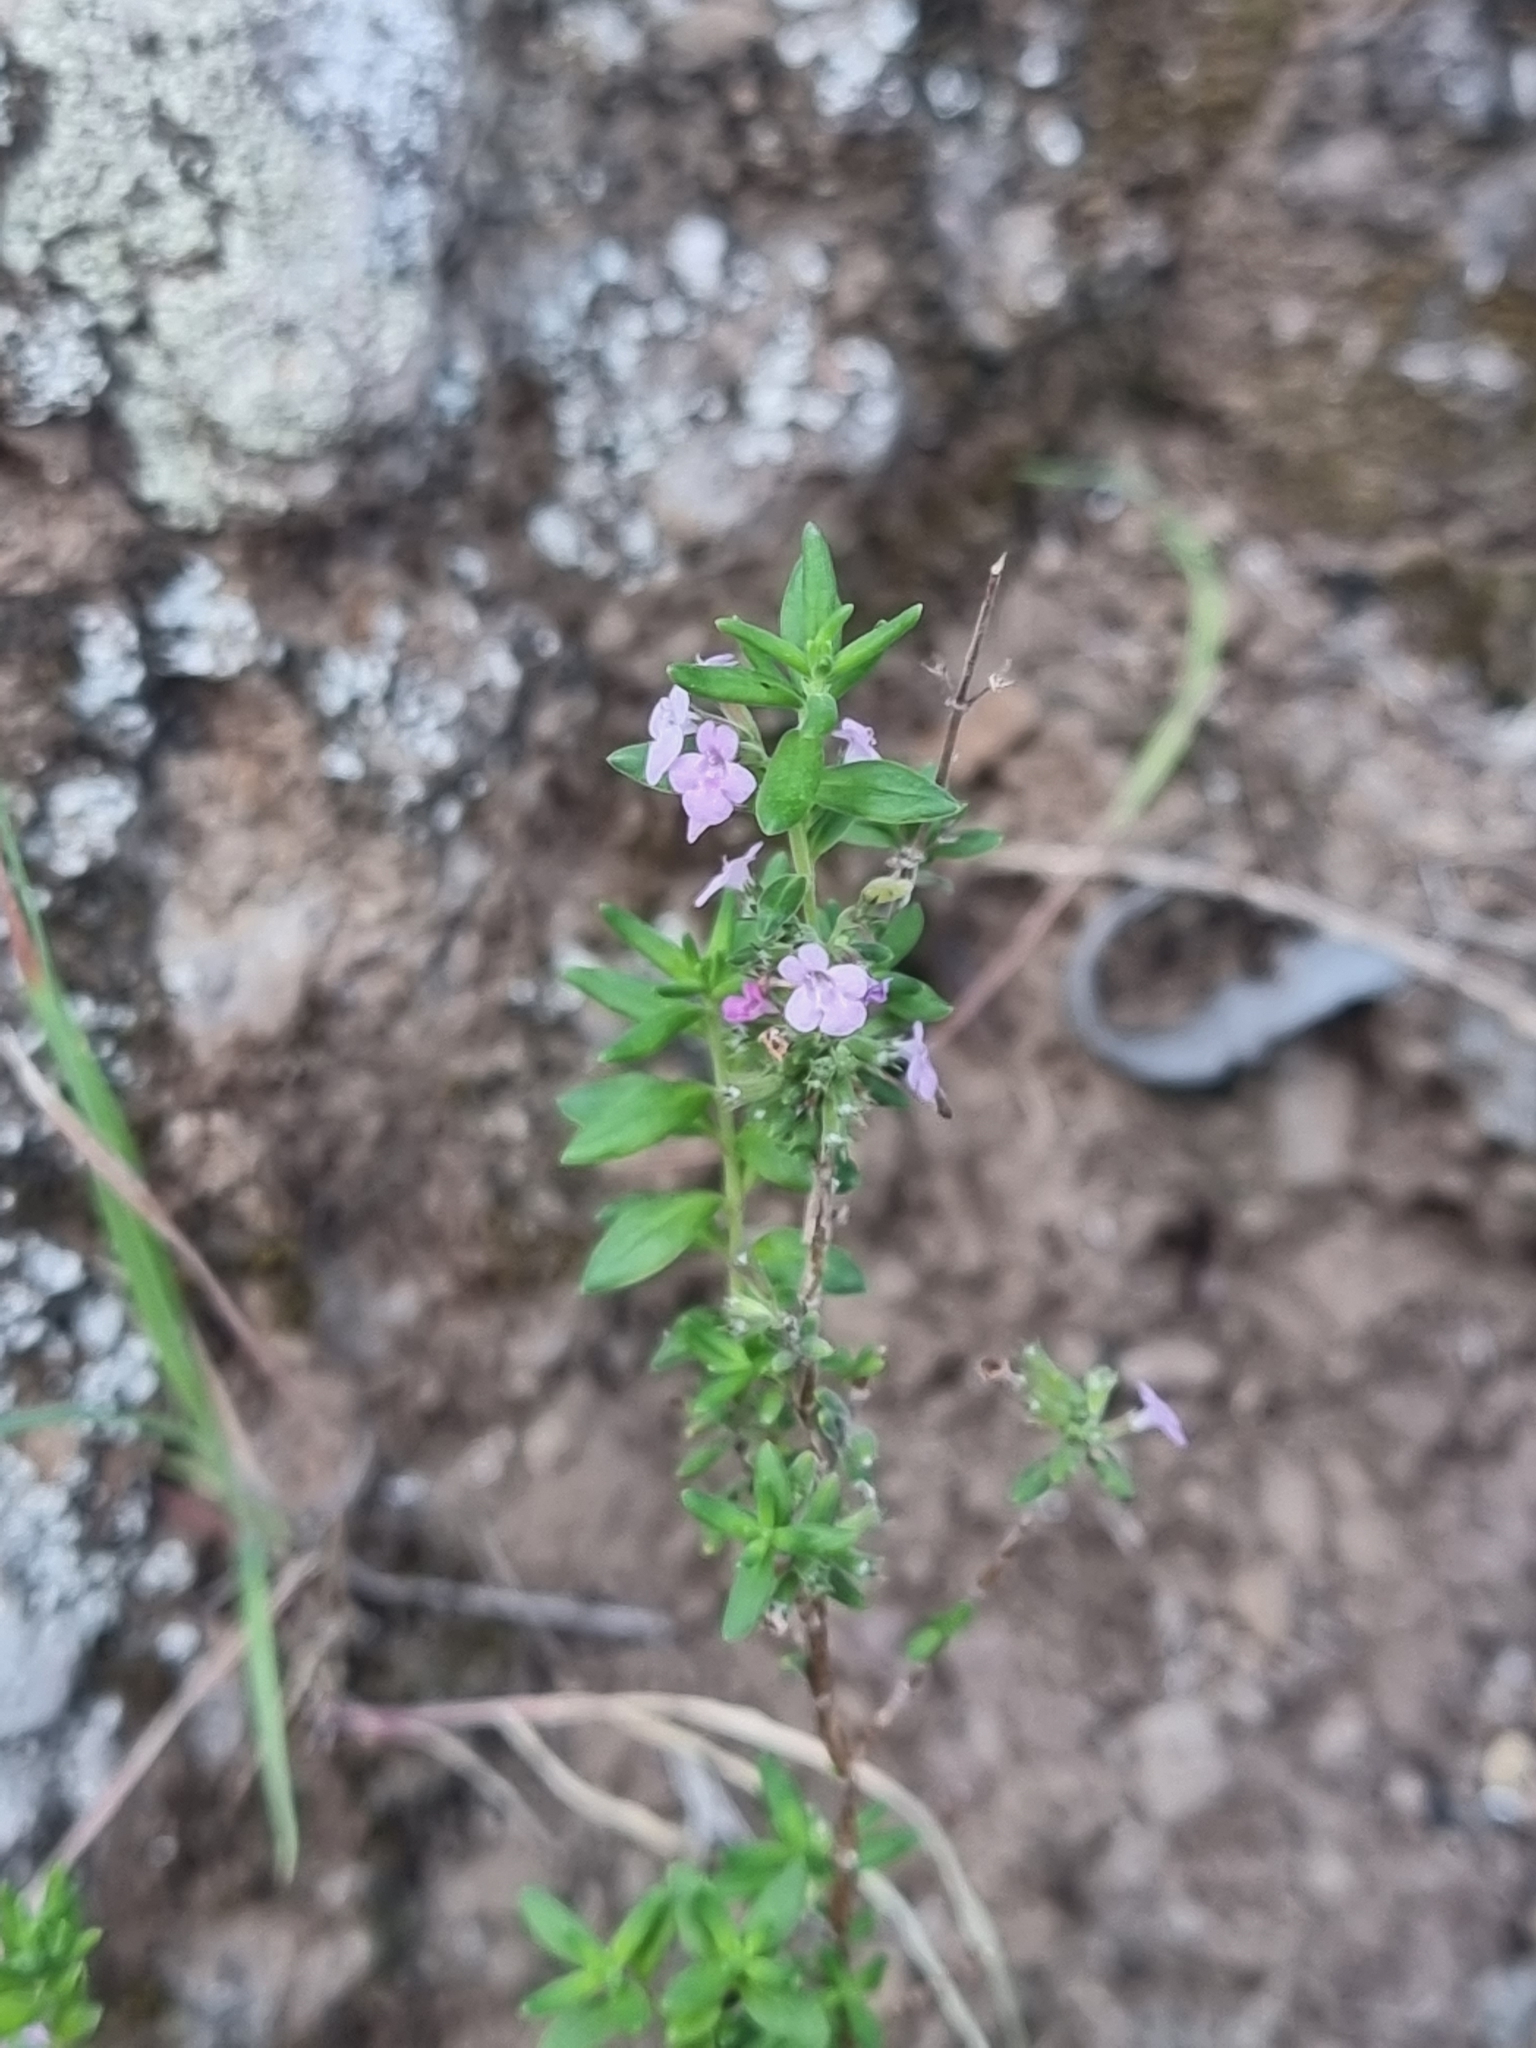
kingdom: Plantae
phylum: Tracheophyta
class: Magnoliopsida
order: Lamiales
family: Lamiaceae
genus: Micromeria
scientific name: Micromeria maderensis
